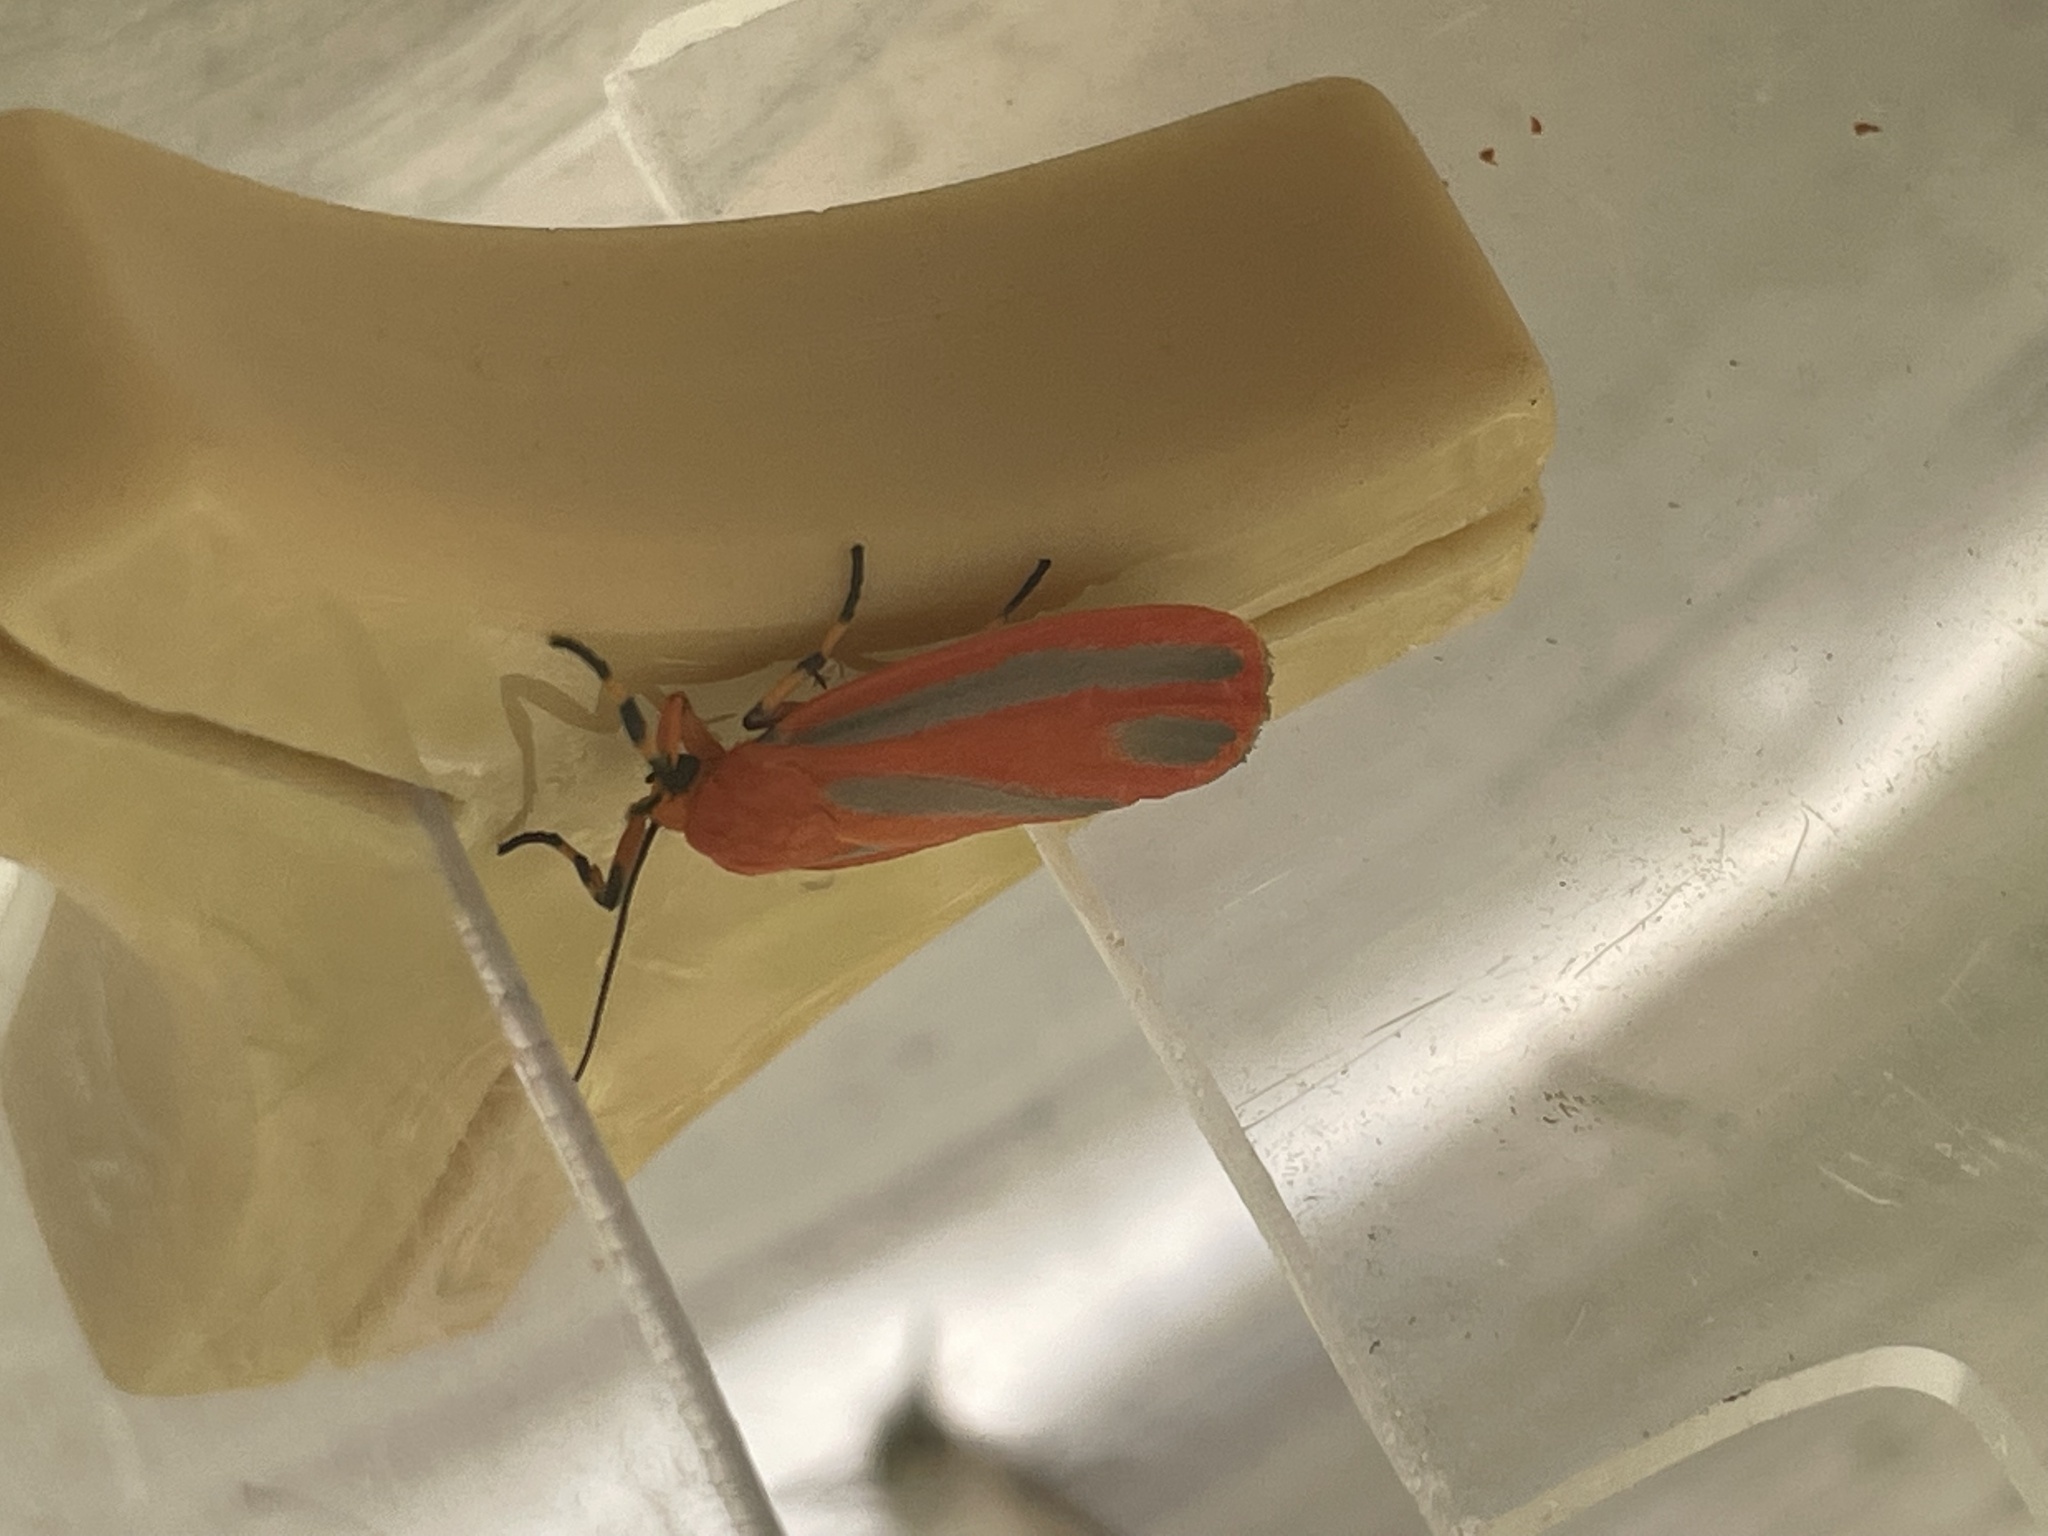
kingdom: Animalia
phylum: Arthropoda
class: Insecta
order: Lepidoptera
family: Erebidae
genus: Hypoprepia
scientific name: Hypoprepia miniata
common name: Scarlet-winged lichen moth
